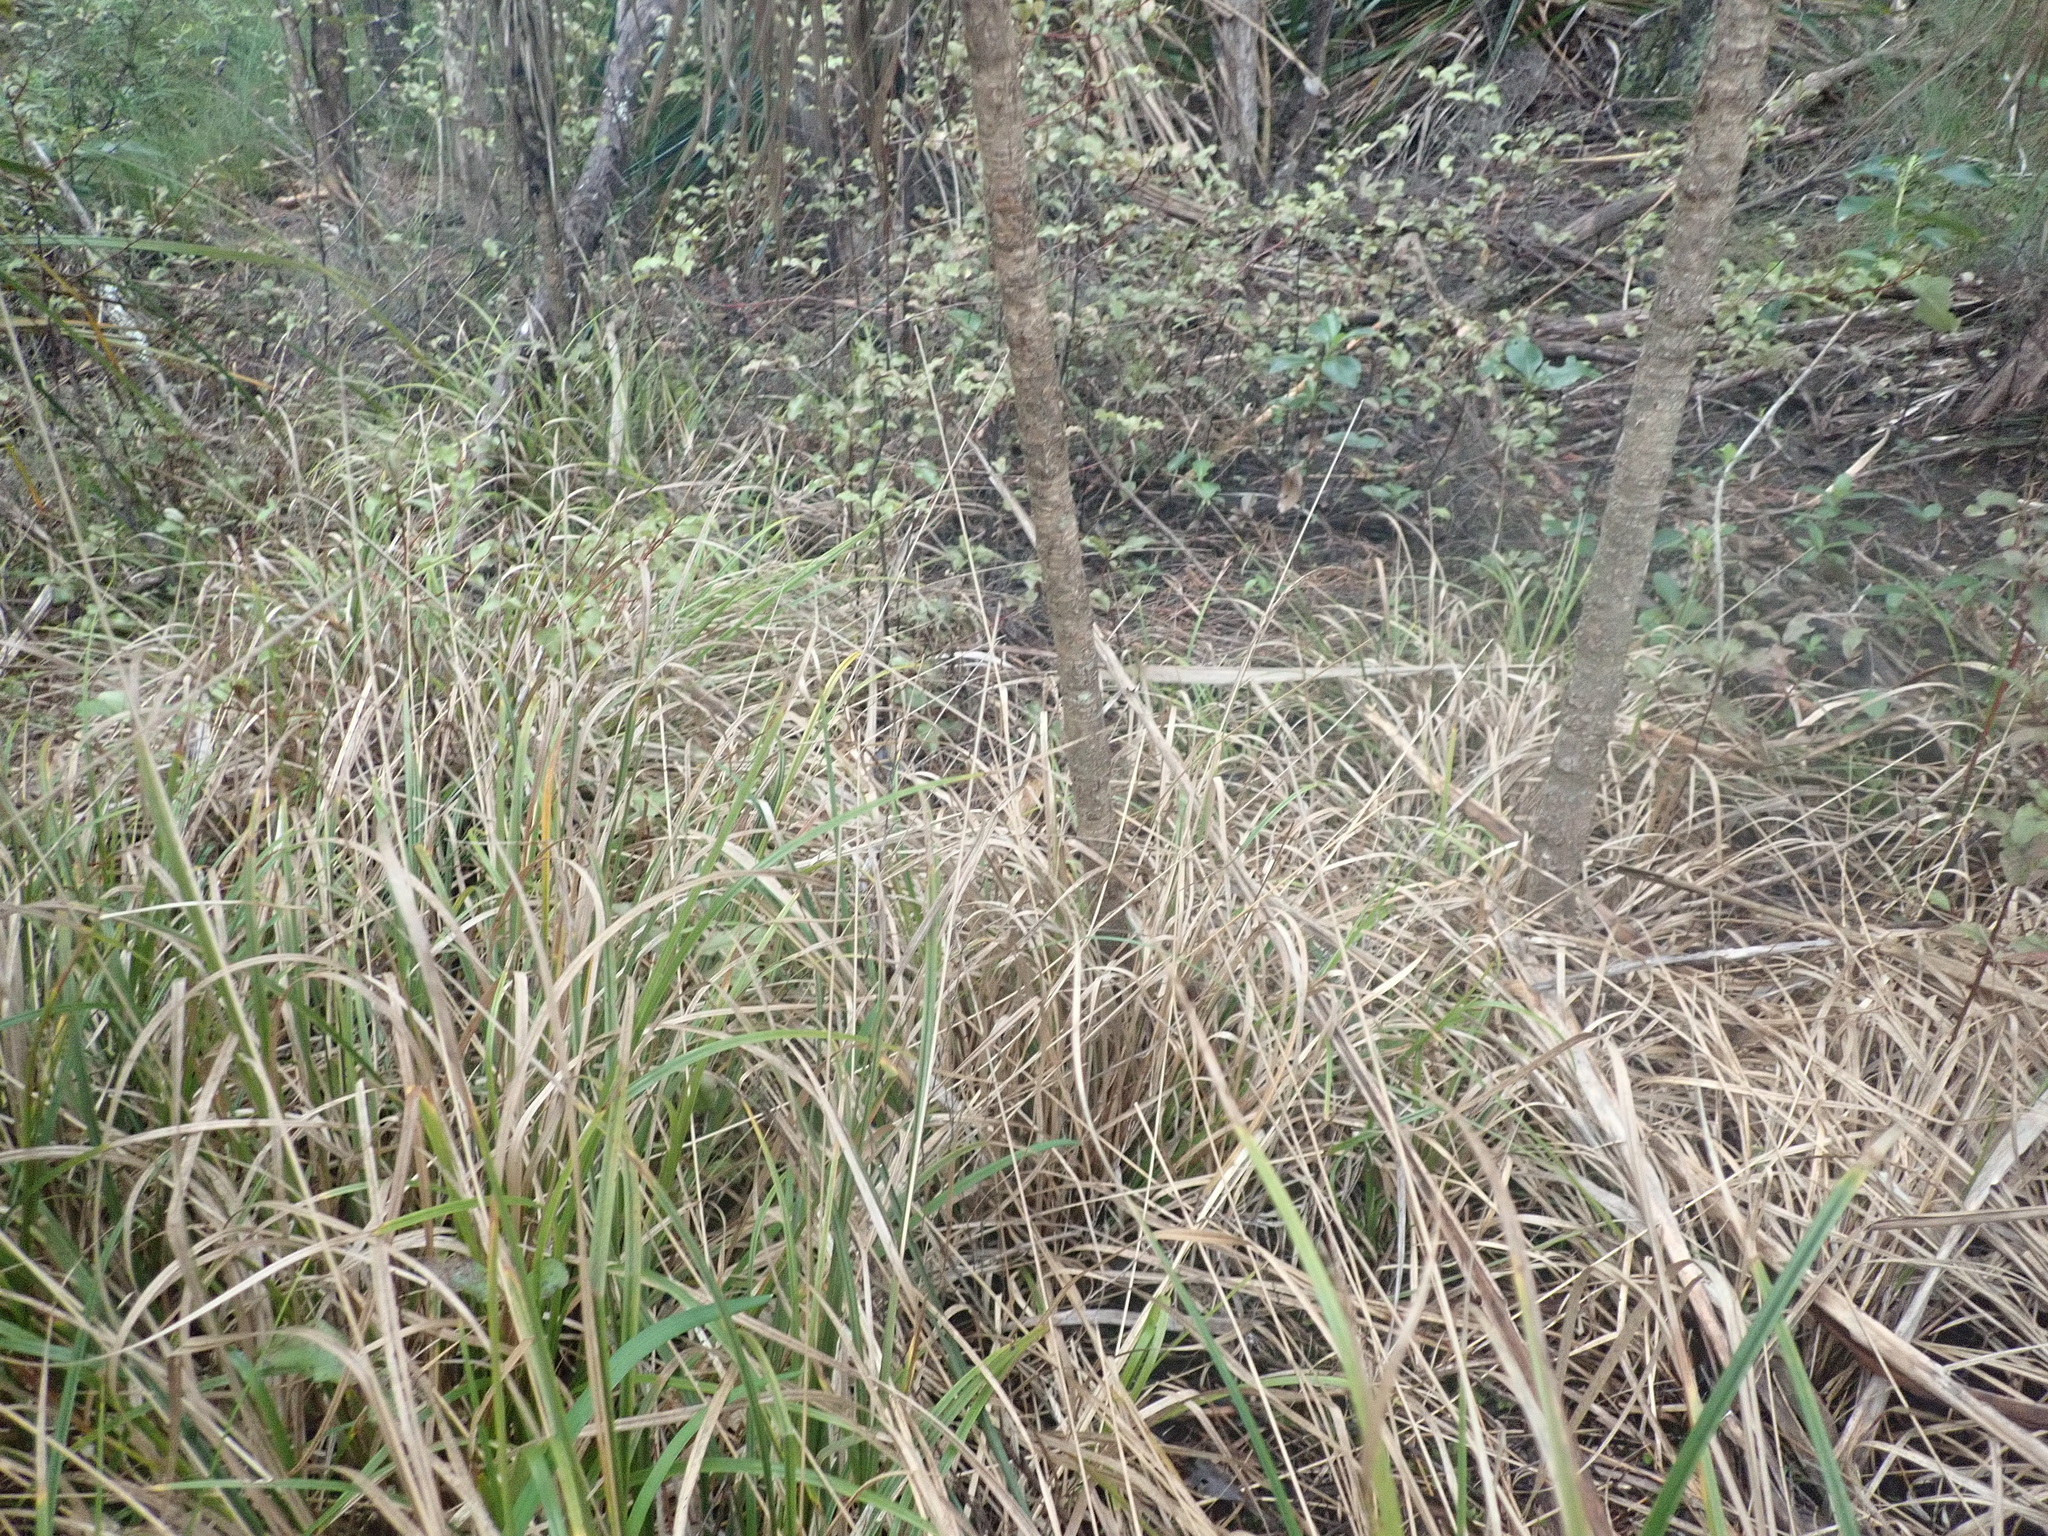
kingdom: Plantae
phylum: Tracheophyta
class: Liliopsida
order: Poales
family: Cyperaceae
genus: Carex
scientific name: Carex uncinata
